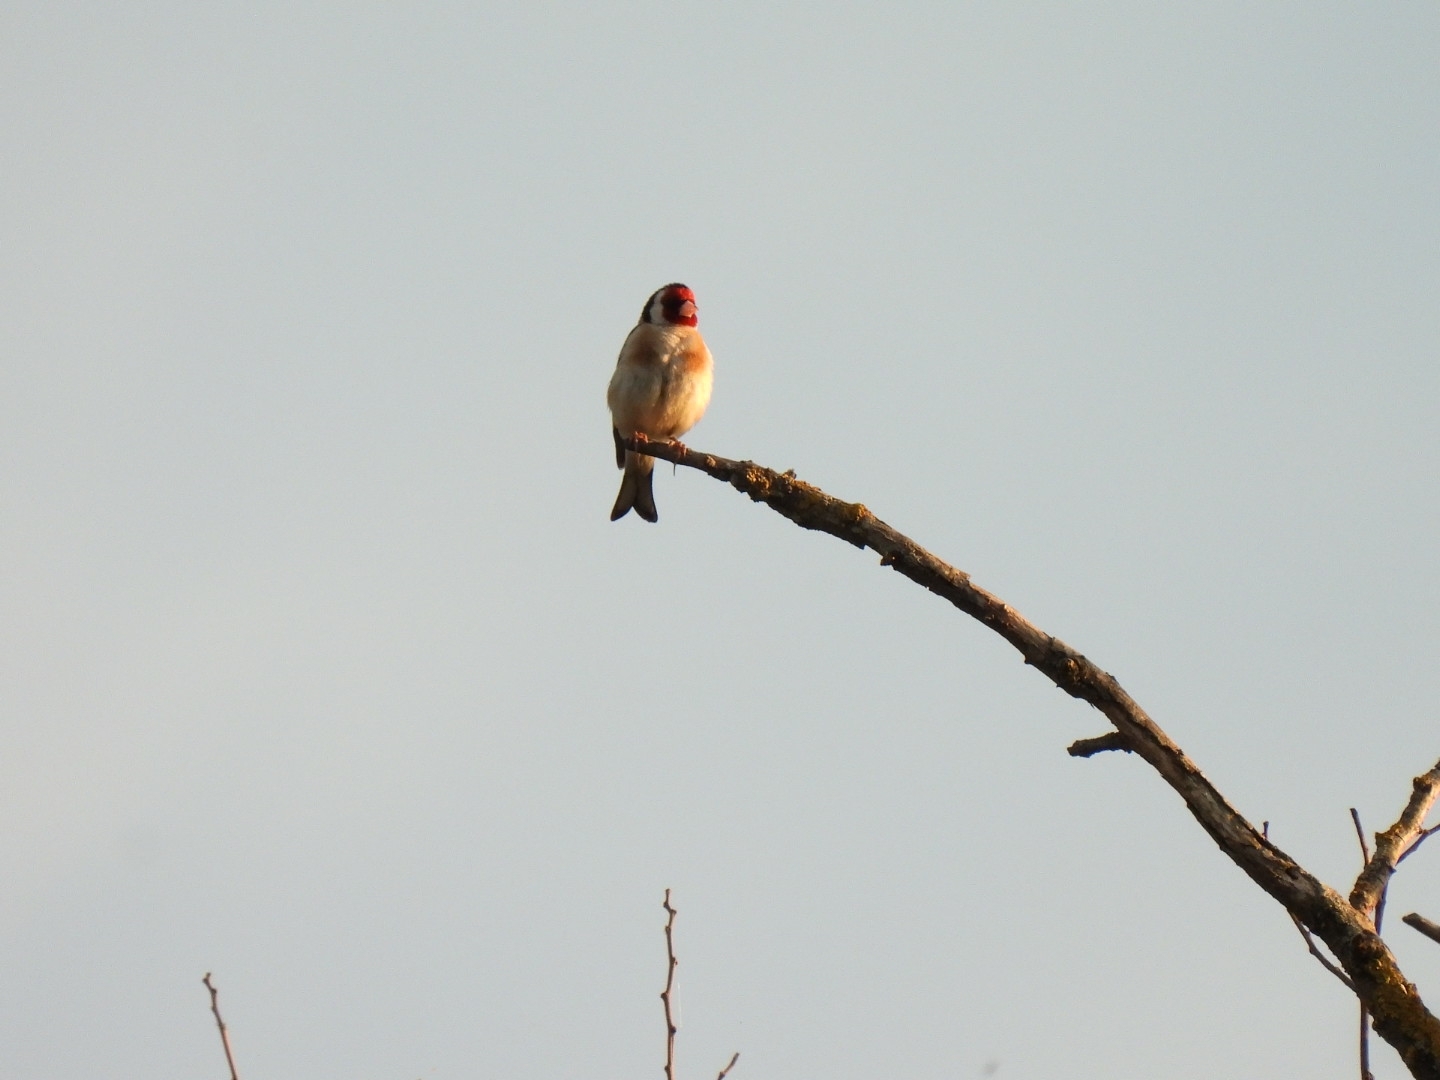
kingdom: Animalia
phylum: Chordata
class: Aves
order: Passeriformes
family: Fringillidae
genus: Carduelis
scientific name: Carduelis carduelis
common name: European goldfinch
